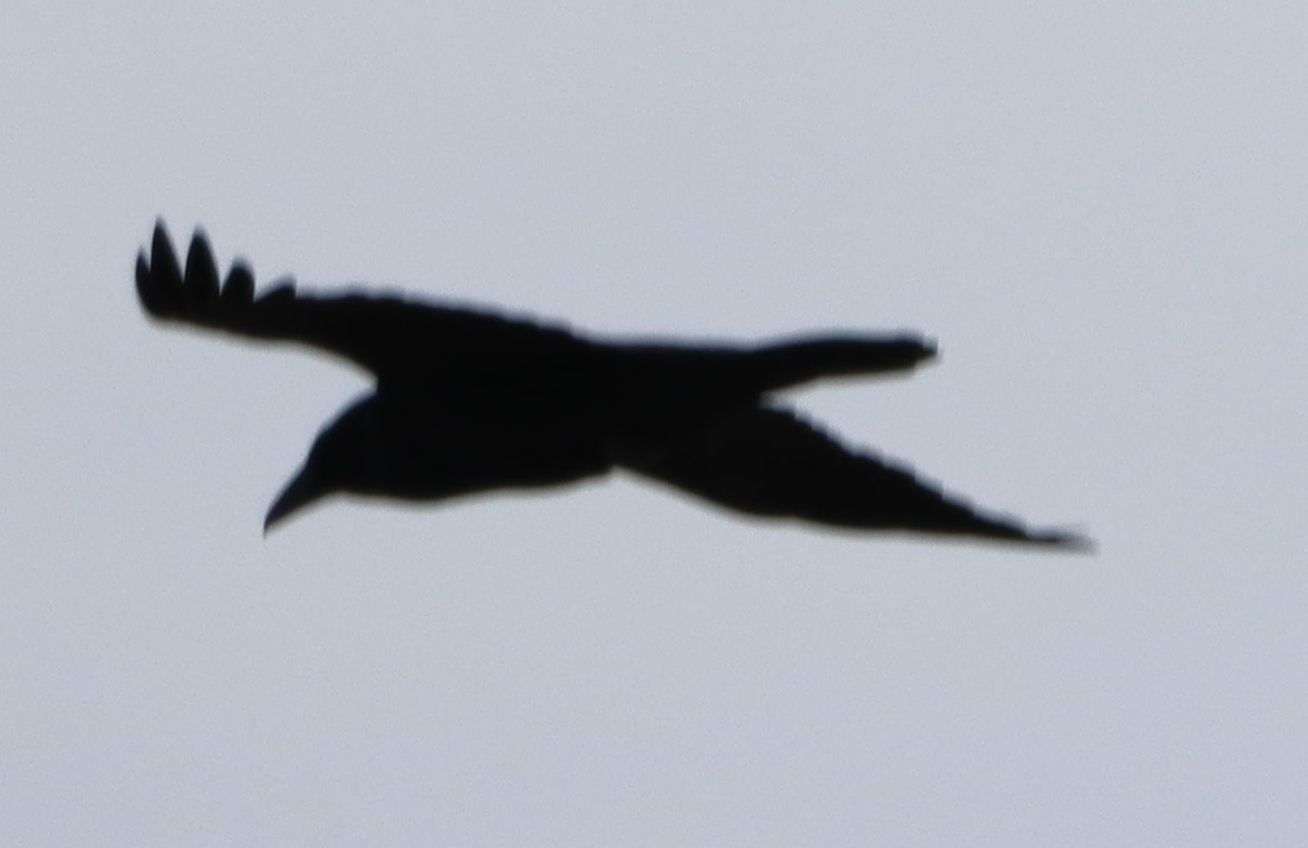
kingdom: Animalia
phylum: Chordata
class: Aves
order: Passeriformes
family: Corvidae
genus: Corvus
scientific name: Corvus corax
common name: Common raven
